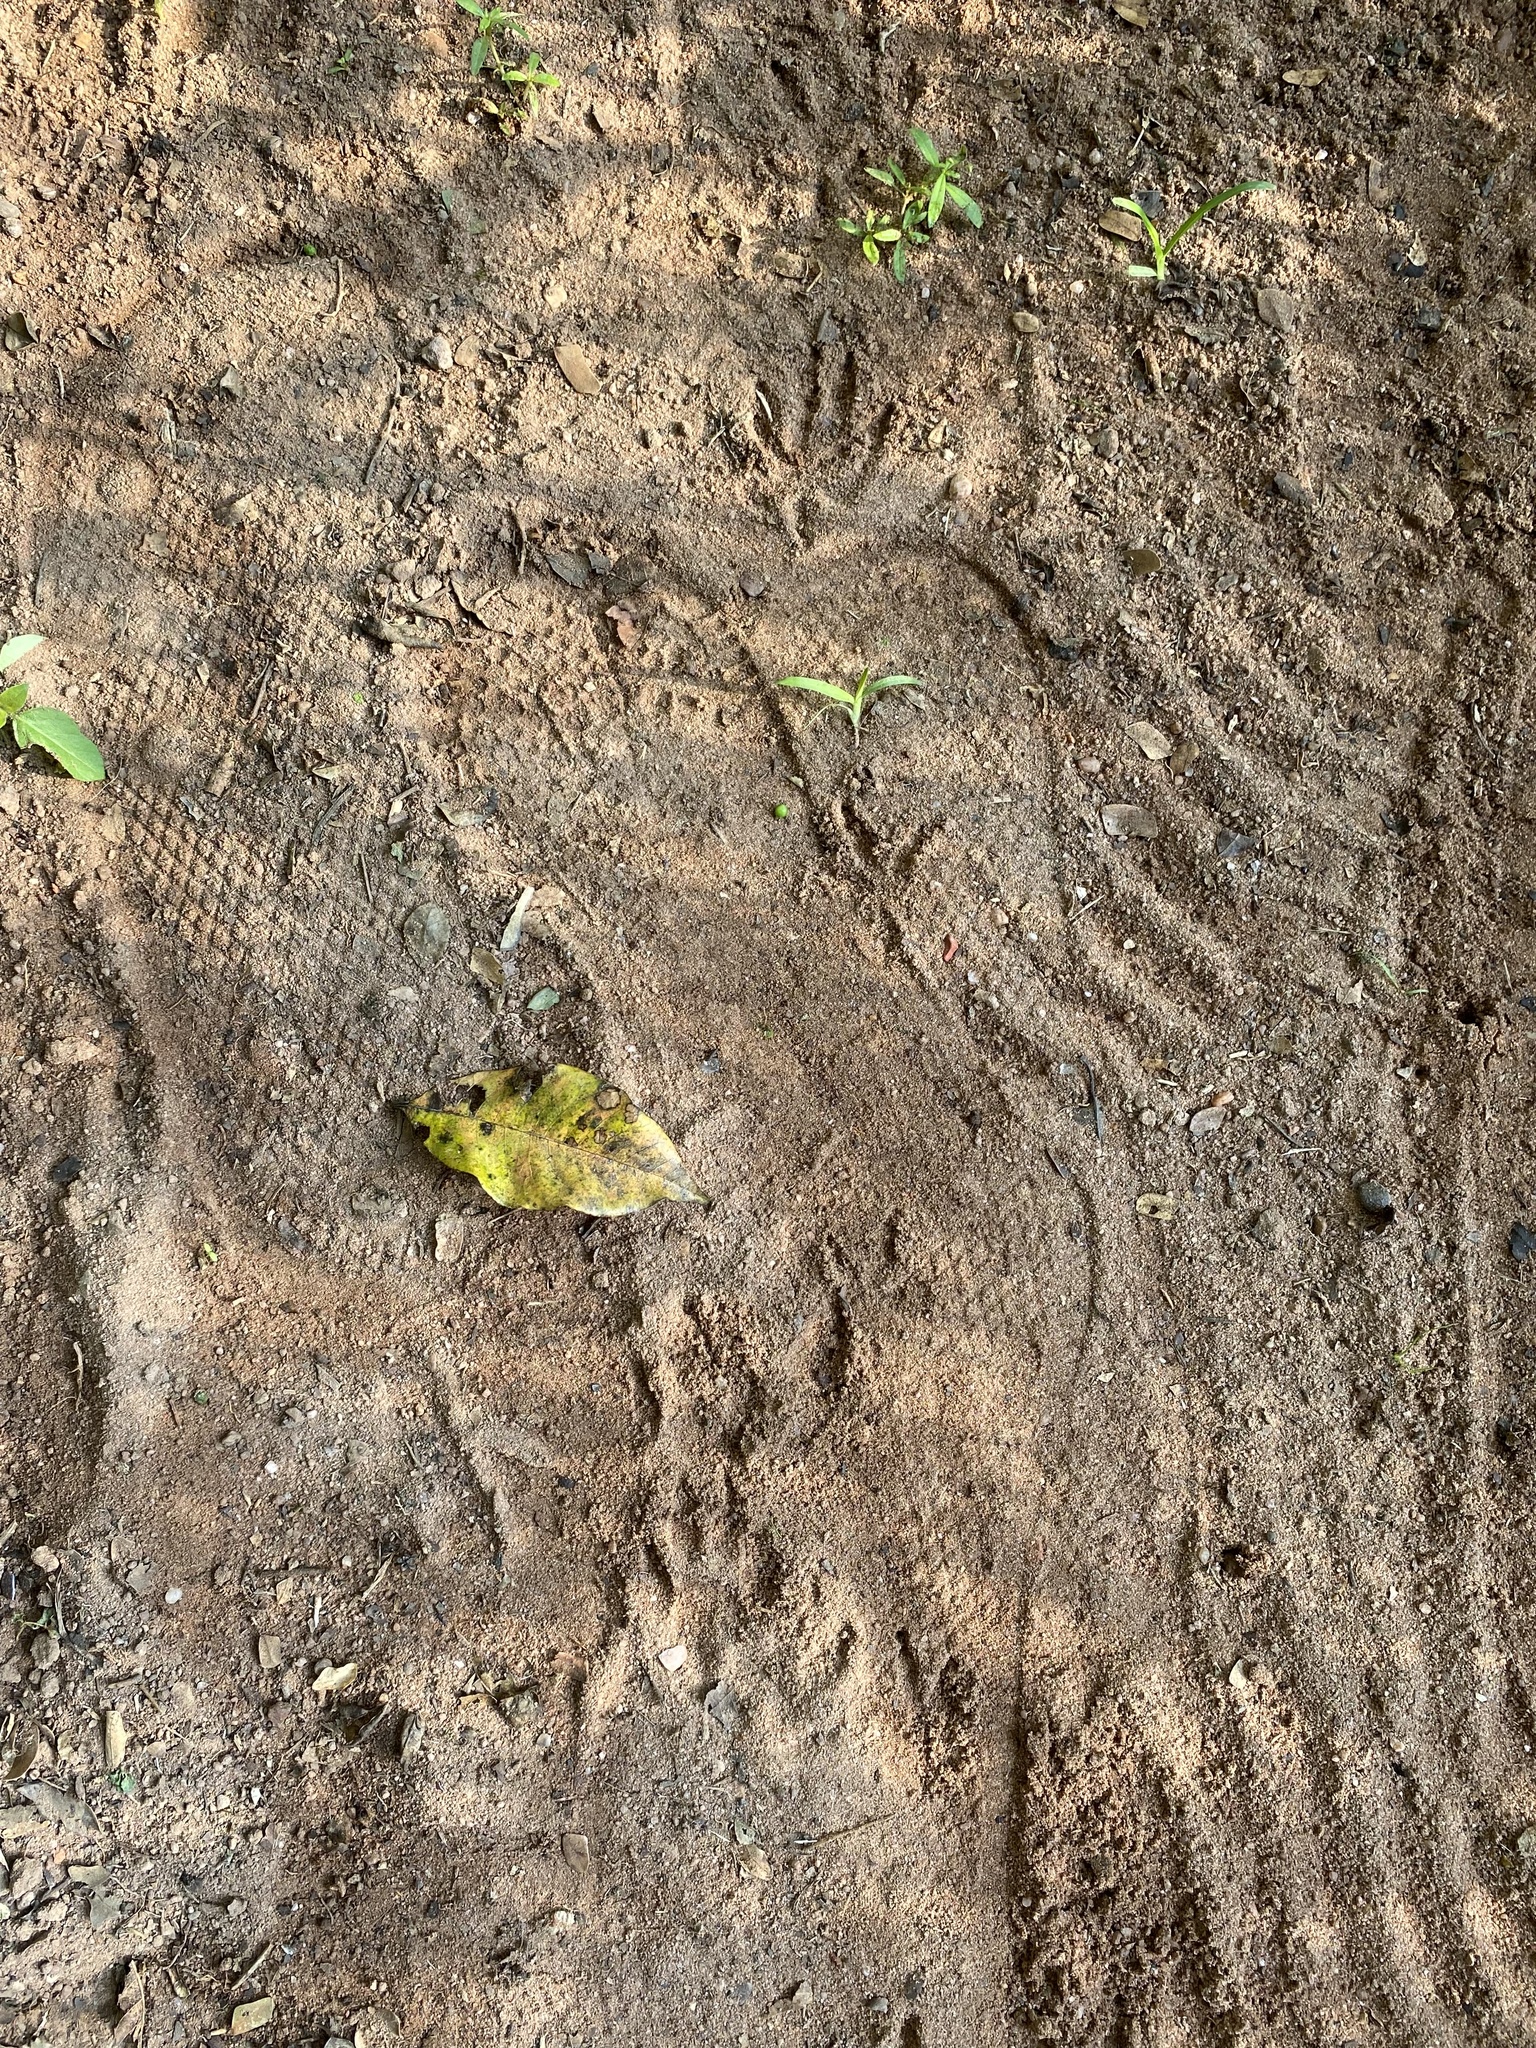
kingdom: Animalia
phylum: Chordata
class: Mammalia
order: Carnivora
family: Herpestidae
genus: Atilax
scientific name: Atilax paludinosus
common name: Marsh mongoose
